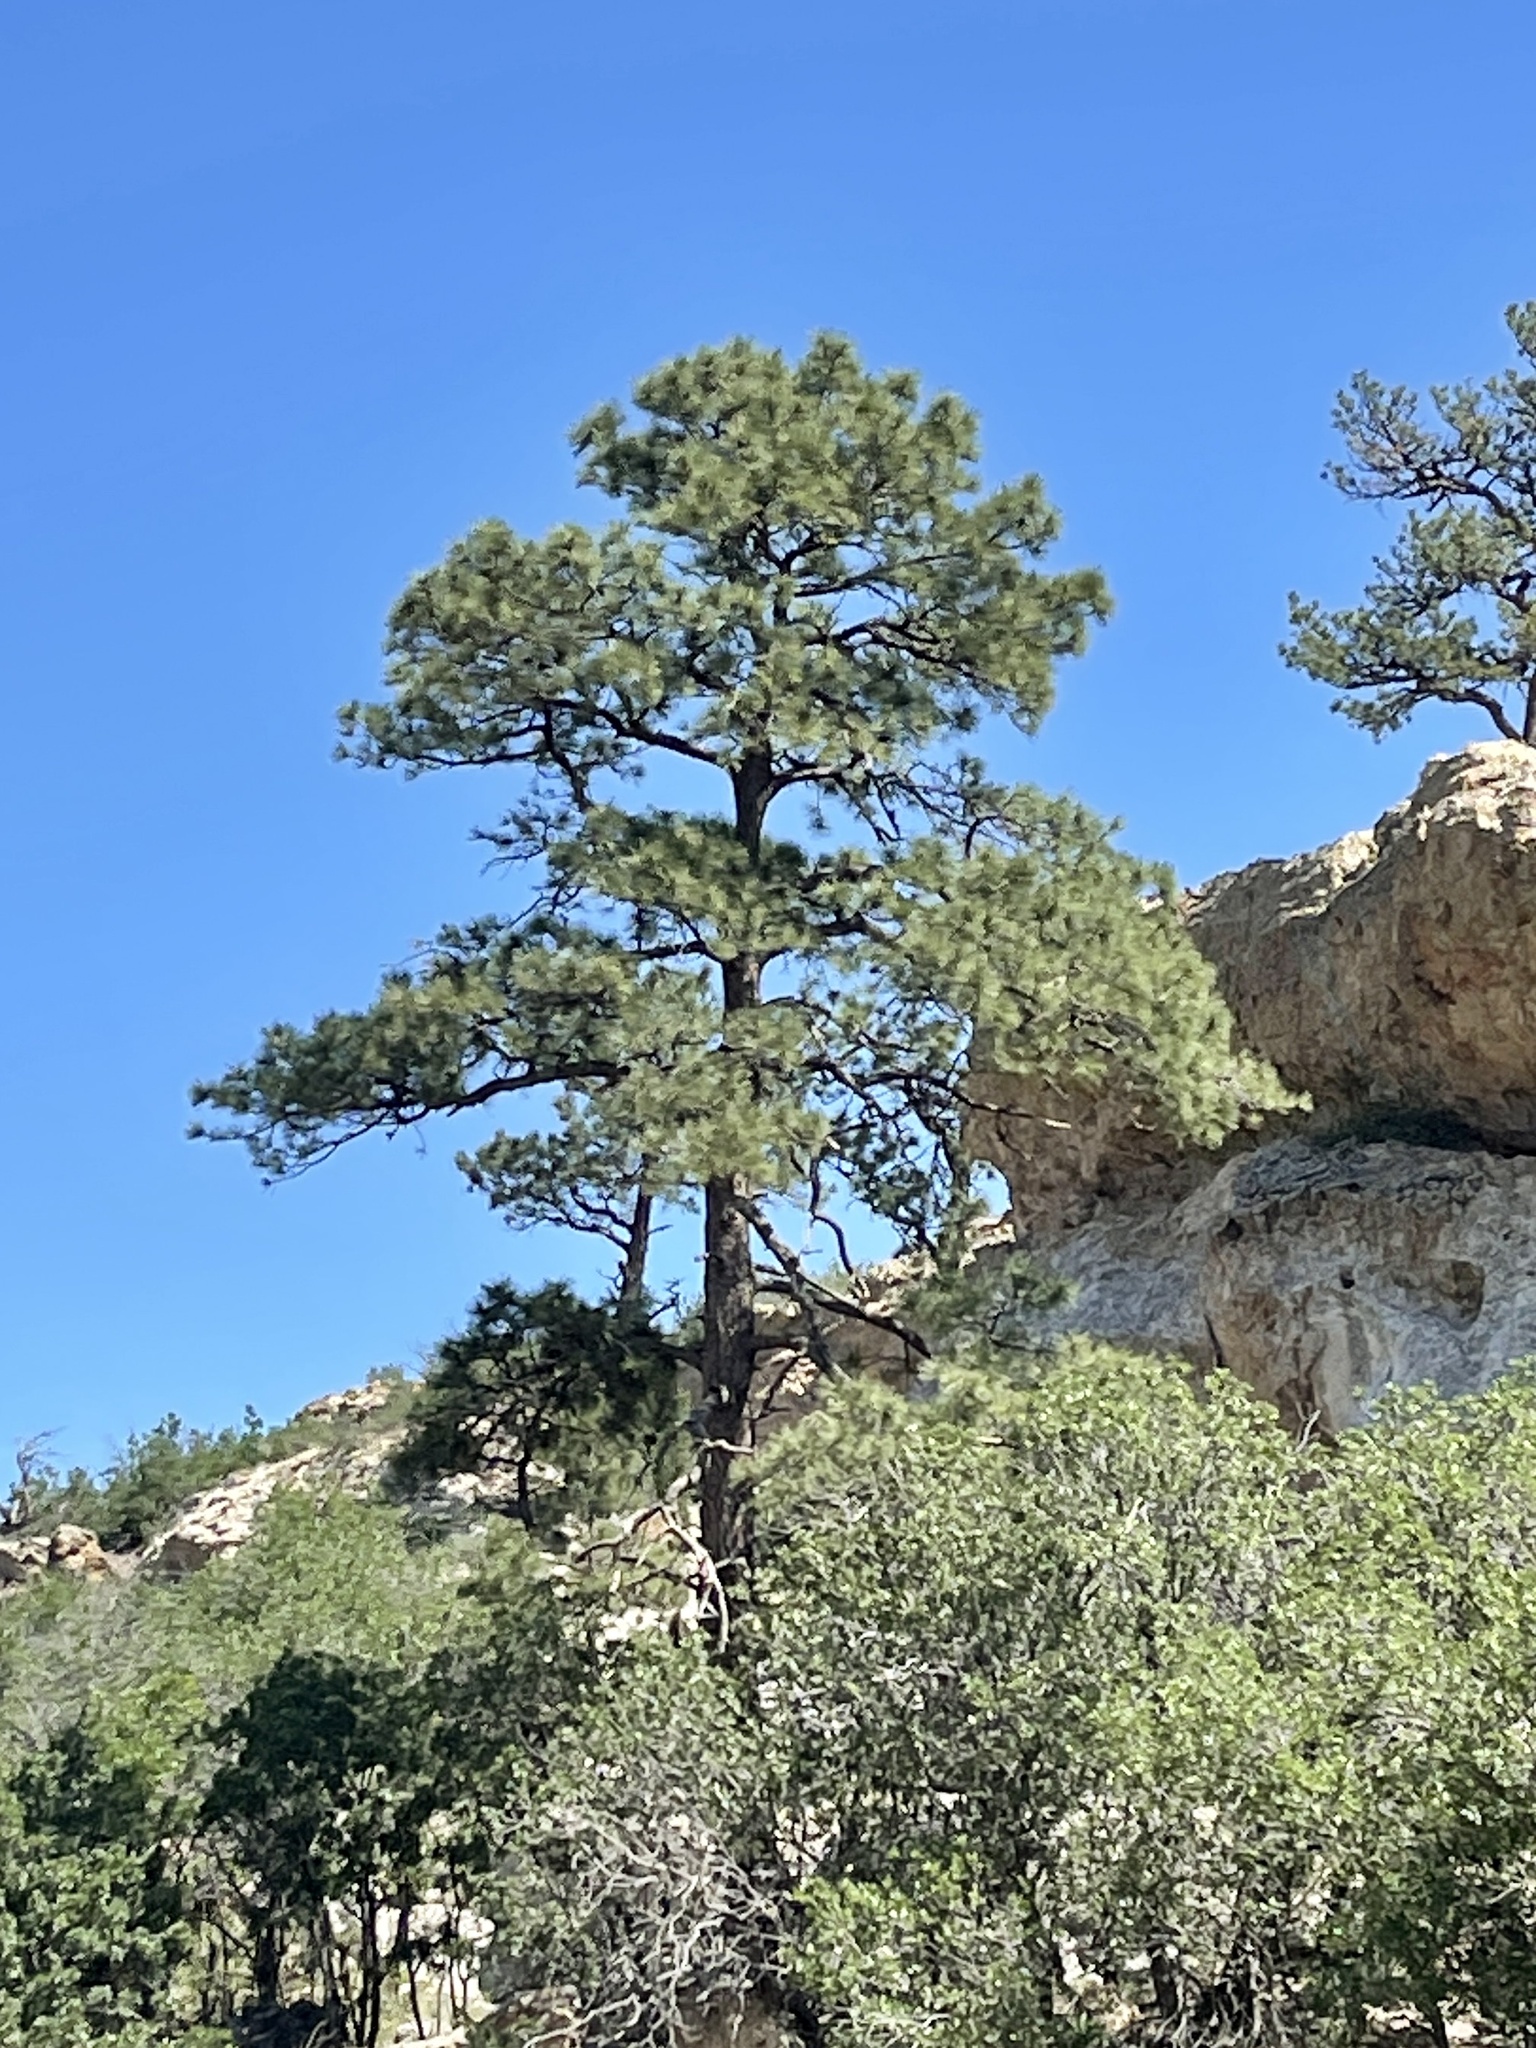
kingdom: Plantae
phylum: Tracheophyta
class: Pinopsida
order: Pinales
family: Pinaceae
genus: Pinus
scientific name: Pinus ponderosa
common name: Western yellow-pine
